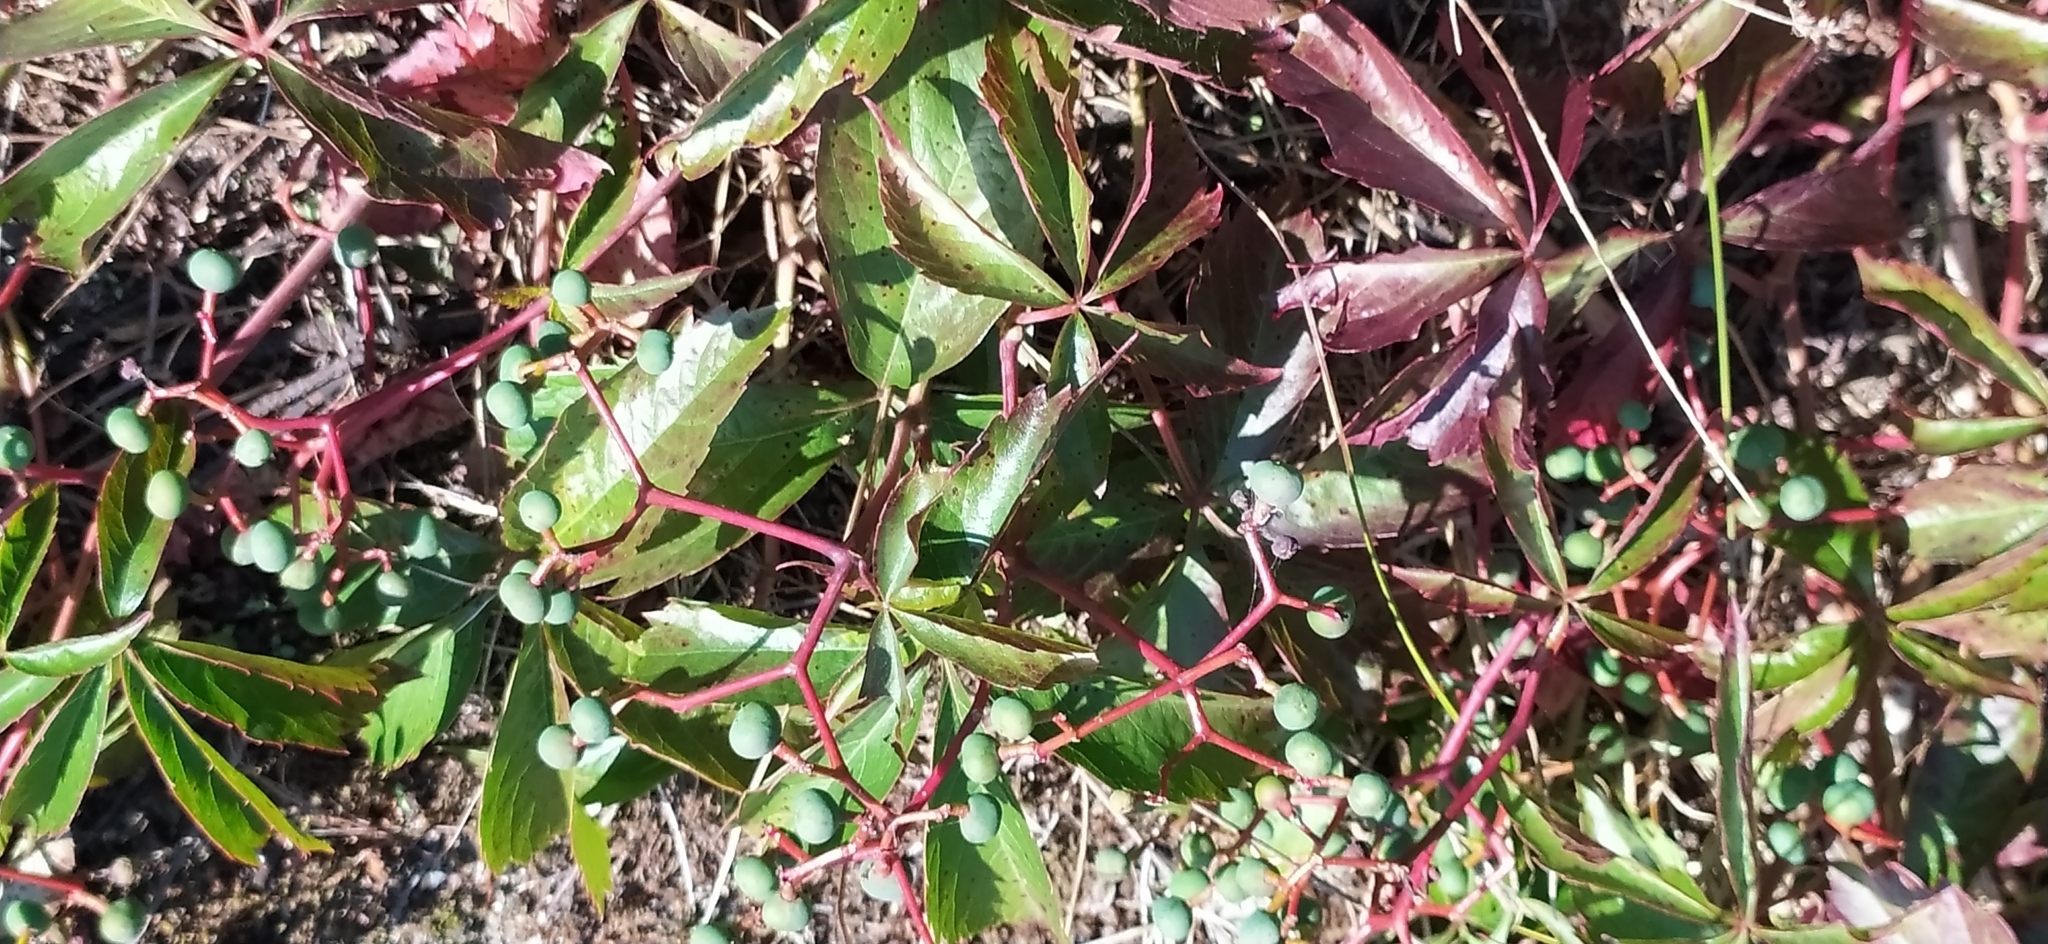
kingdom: Plantae
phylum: Tracheophyta
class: Magnoliopsida
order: Vitales
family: Vitaceae
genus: Parthenocissus
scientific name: Parthenocissus inserta
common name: False virginia-creeper
